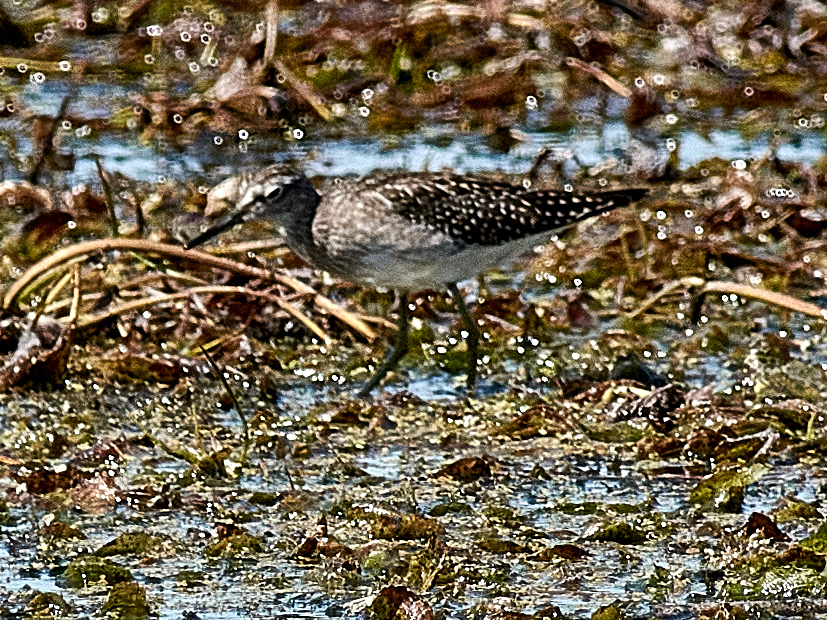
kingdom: Animalia
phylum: Chordata
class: Aves
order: Charadriiformes
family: Scolopacidae
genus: Tringa
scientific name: Tringa glareola
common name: Wood sandpiper
